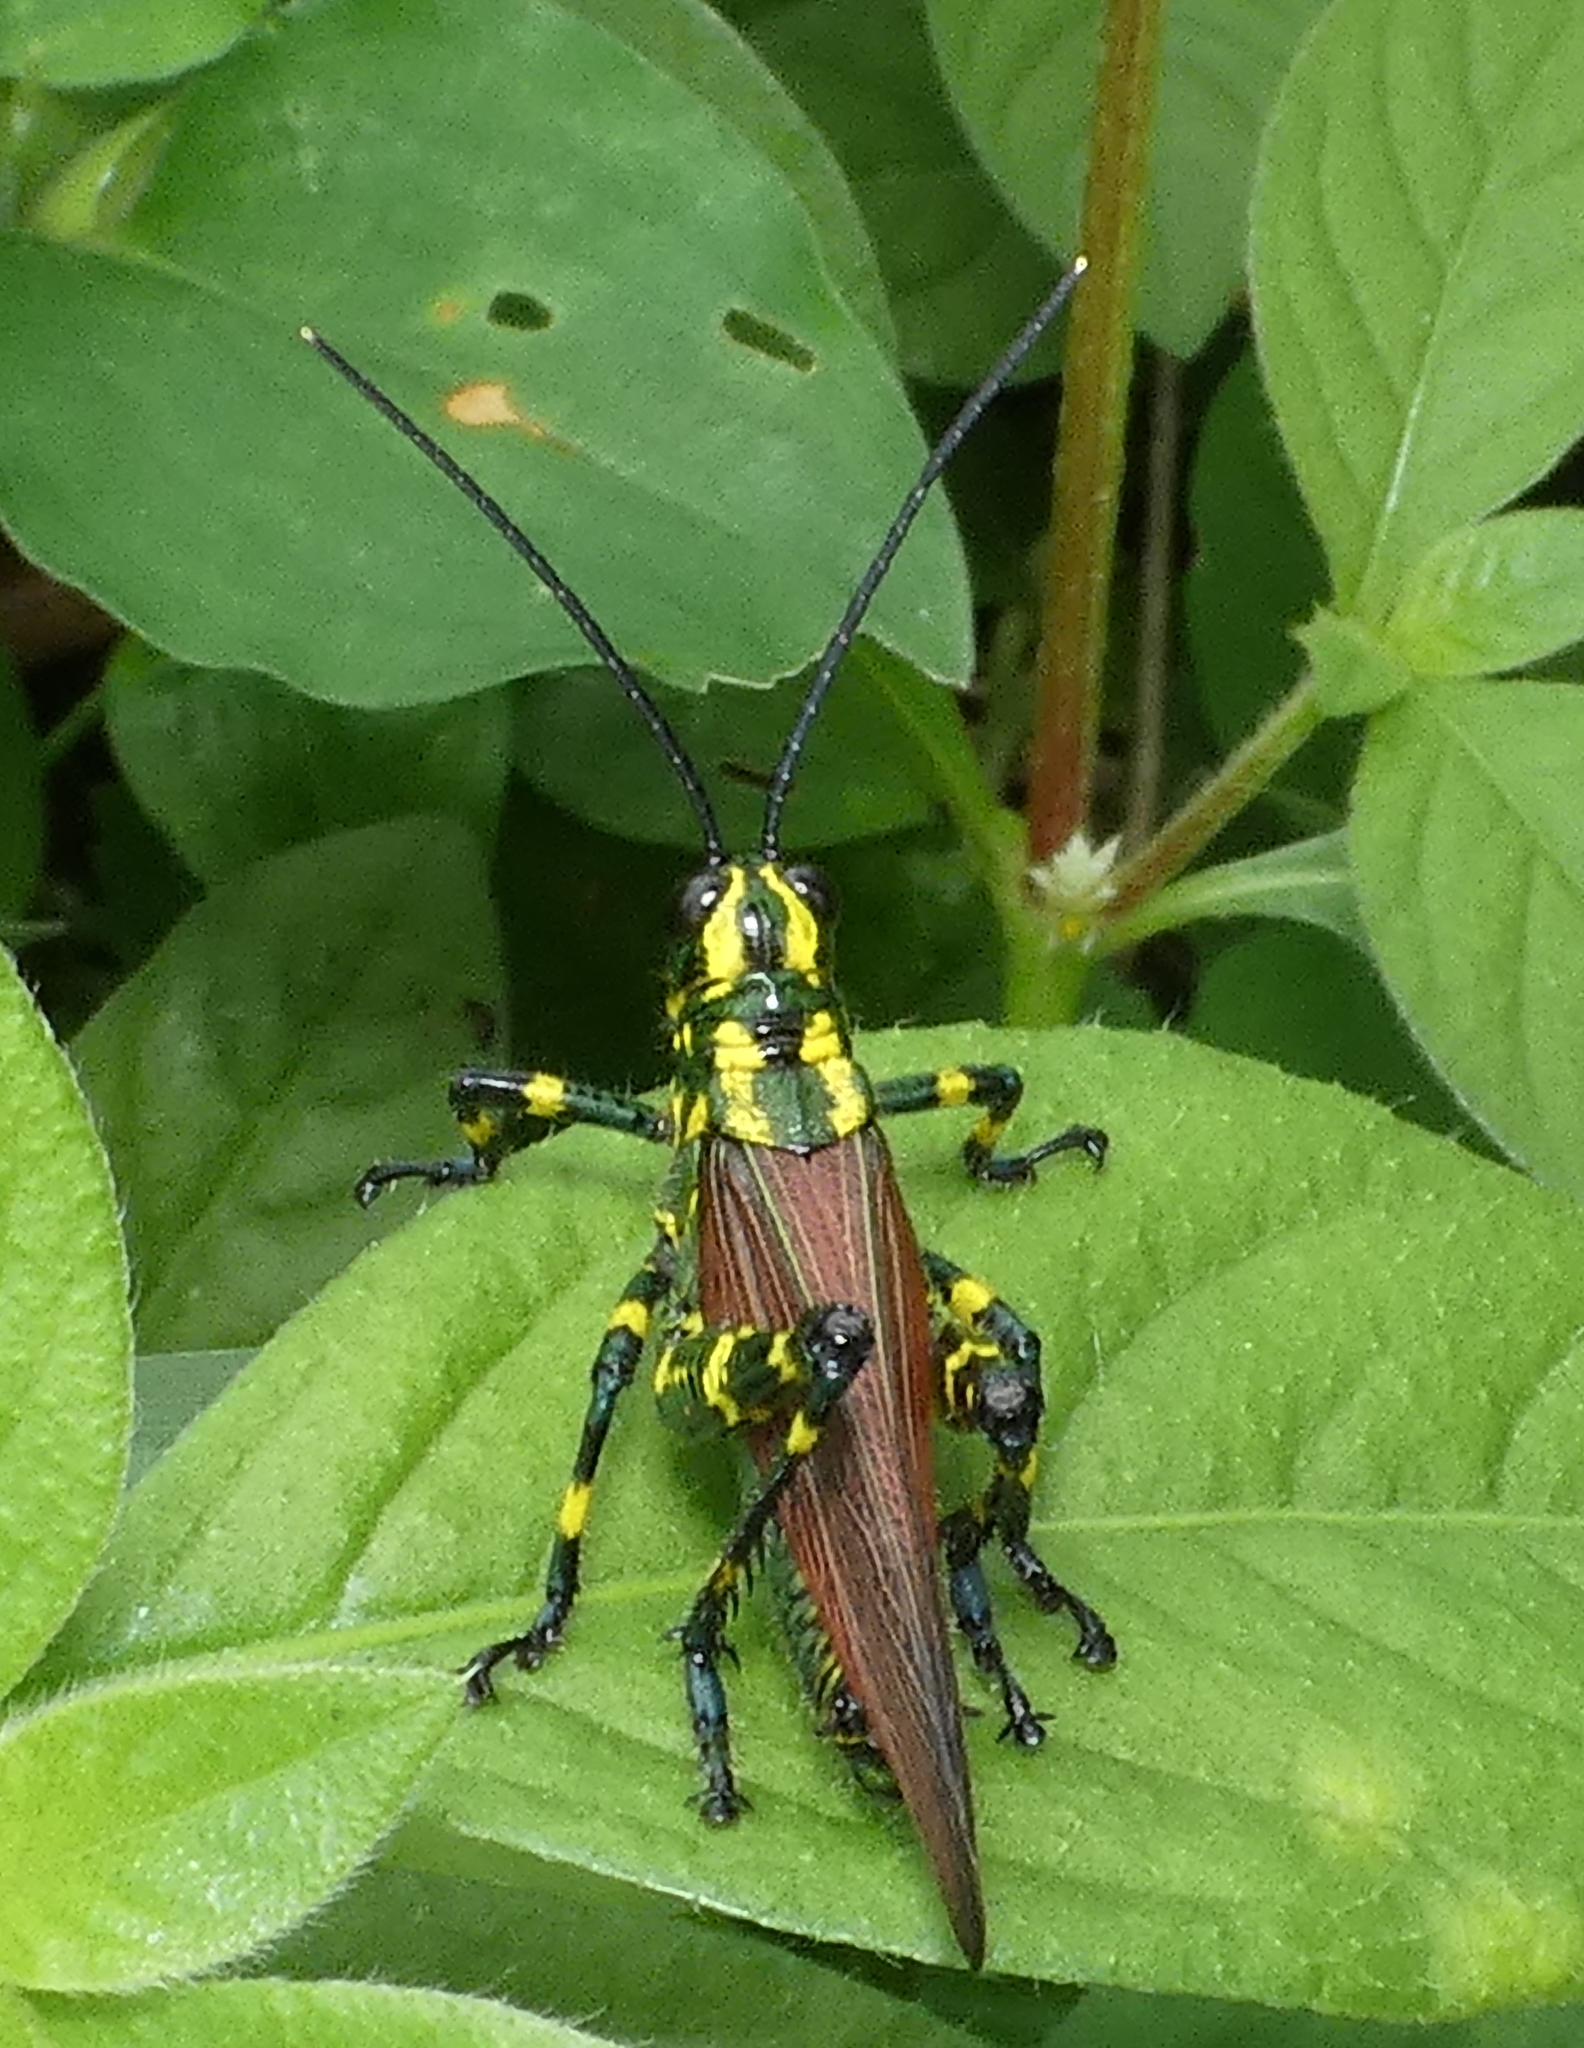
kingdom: Animalia
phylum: Arthropoda
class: Insecta
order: Orthoptera
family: Romaleidae
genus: Chromacris
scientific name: Chromacris speciosa
